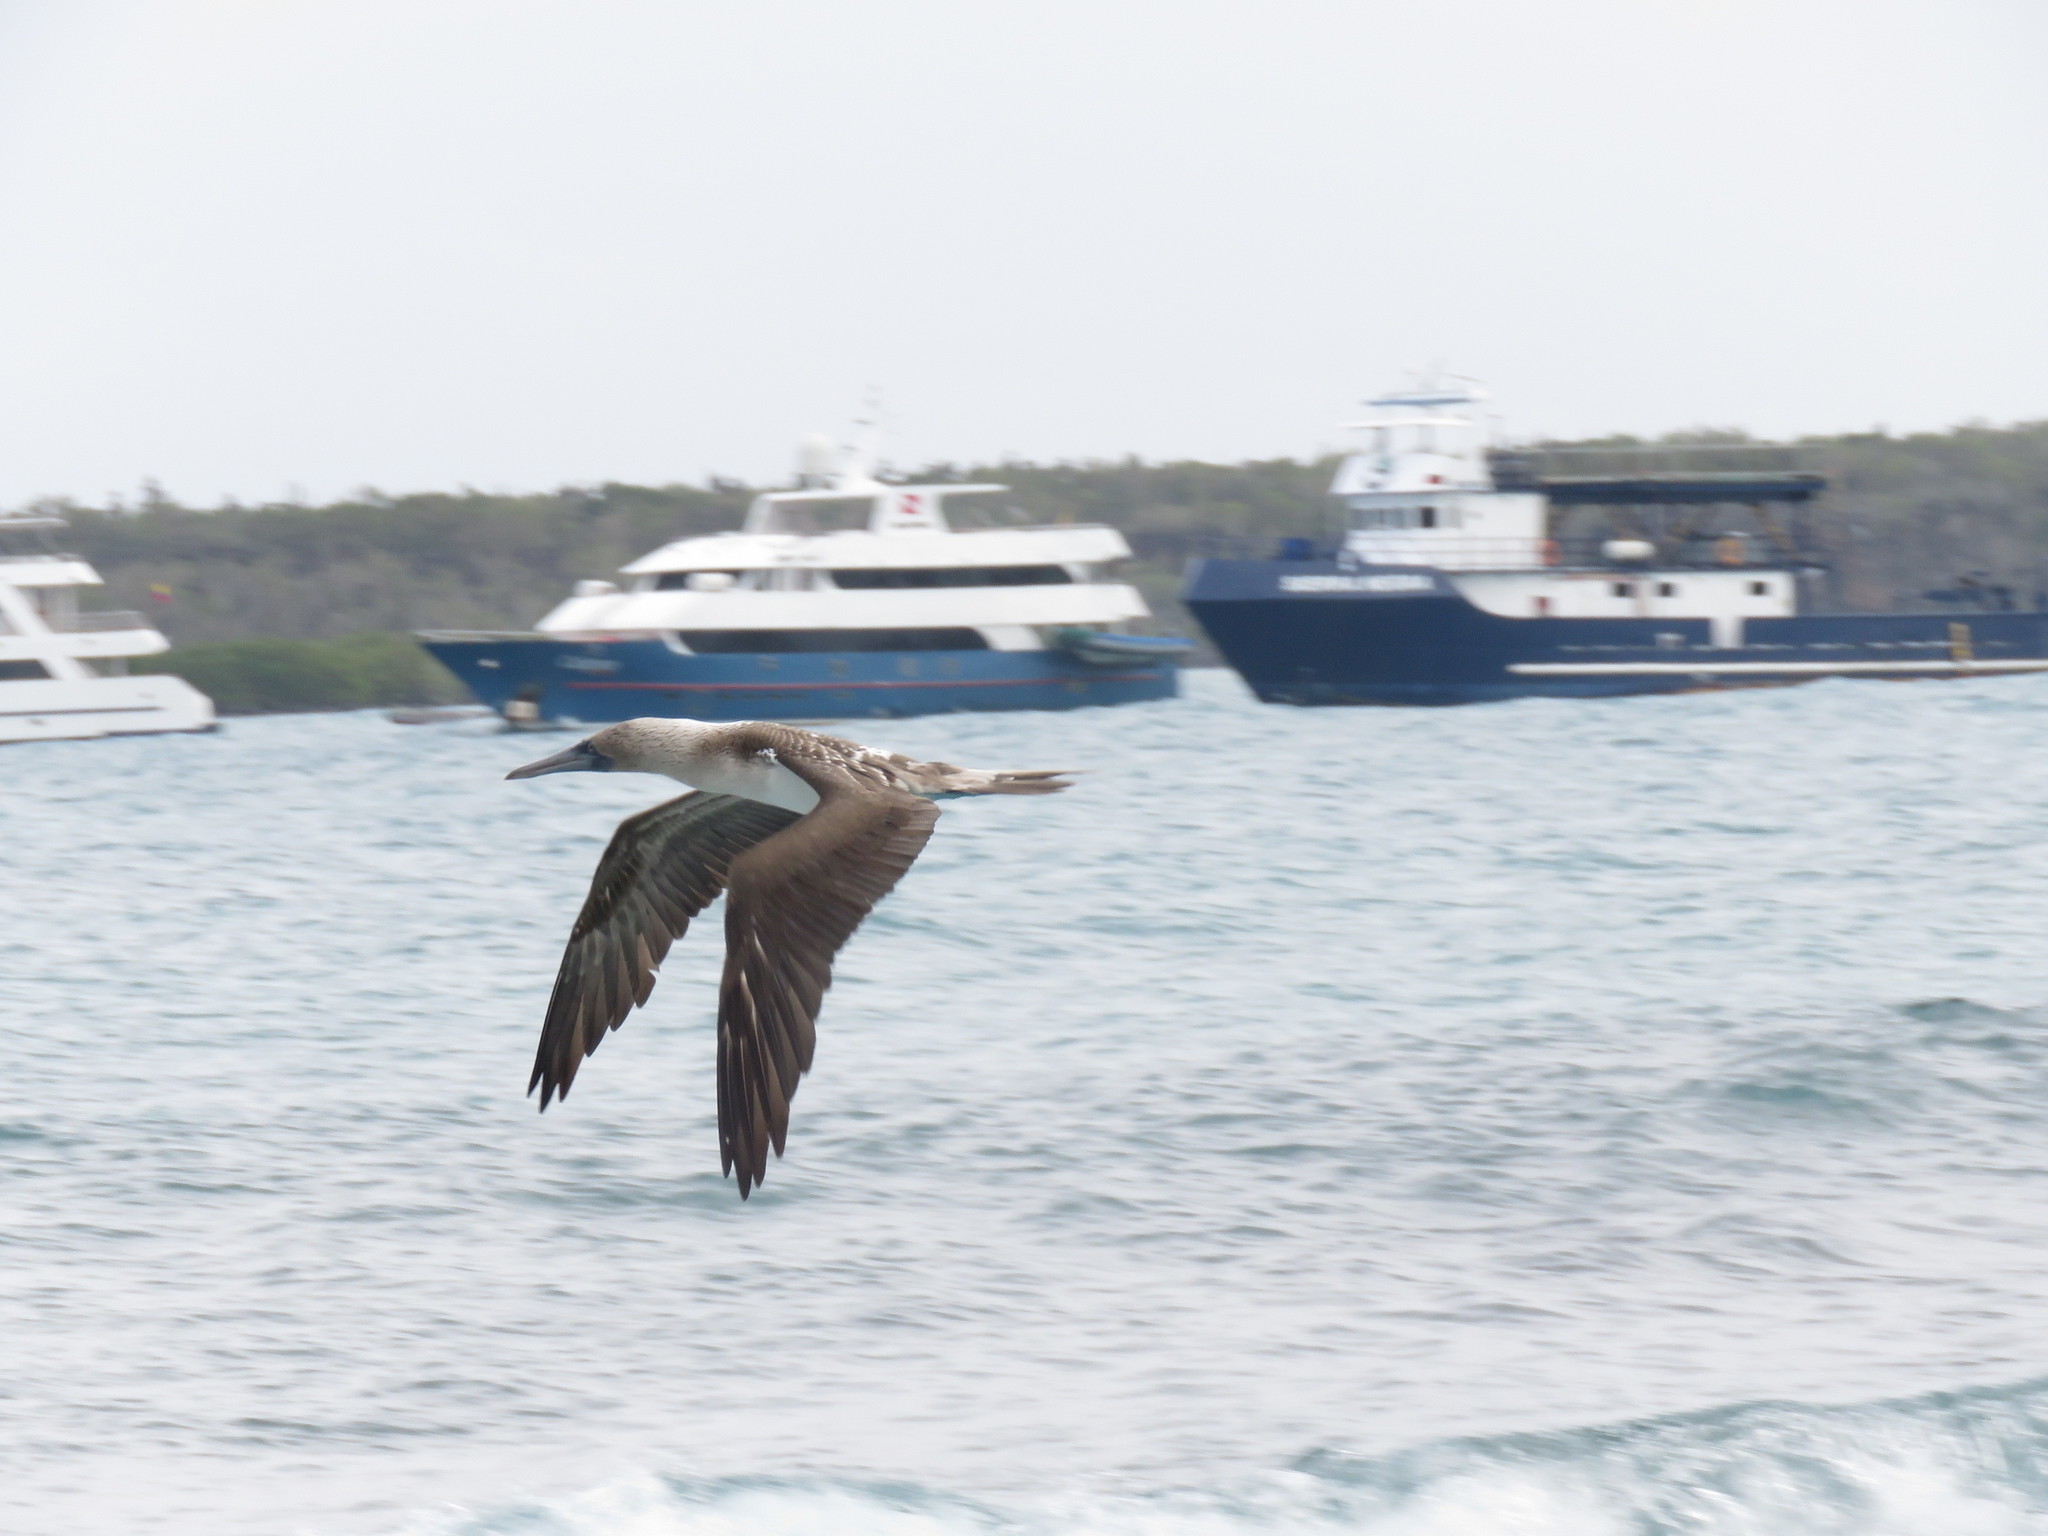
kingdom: Animalia
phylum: Chordata
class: Aves
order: Suliformes
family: Sulidae
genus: Sula
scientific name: Sula nebouxii
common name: Blue-footed booby
